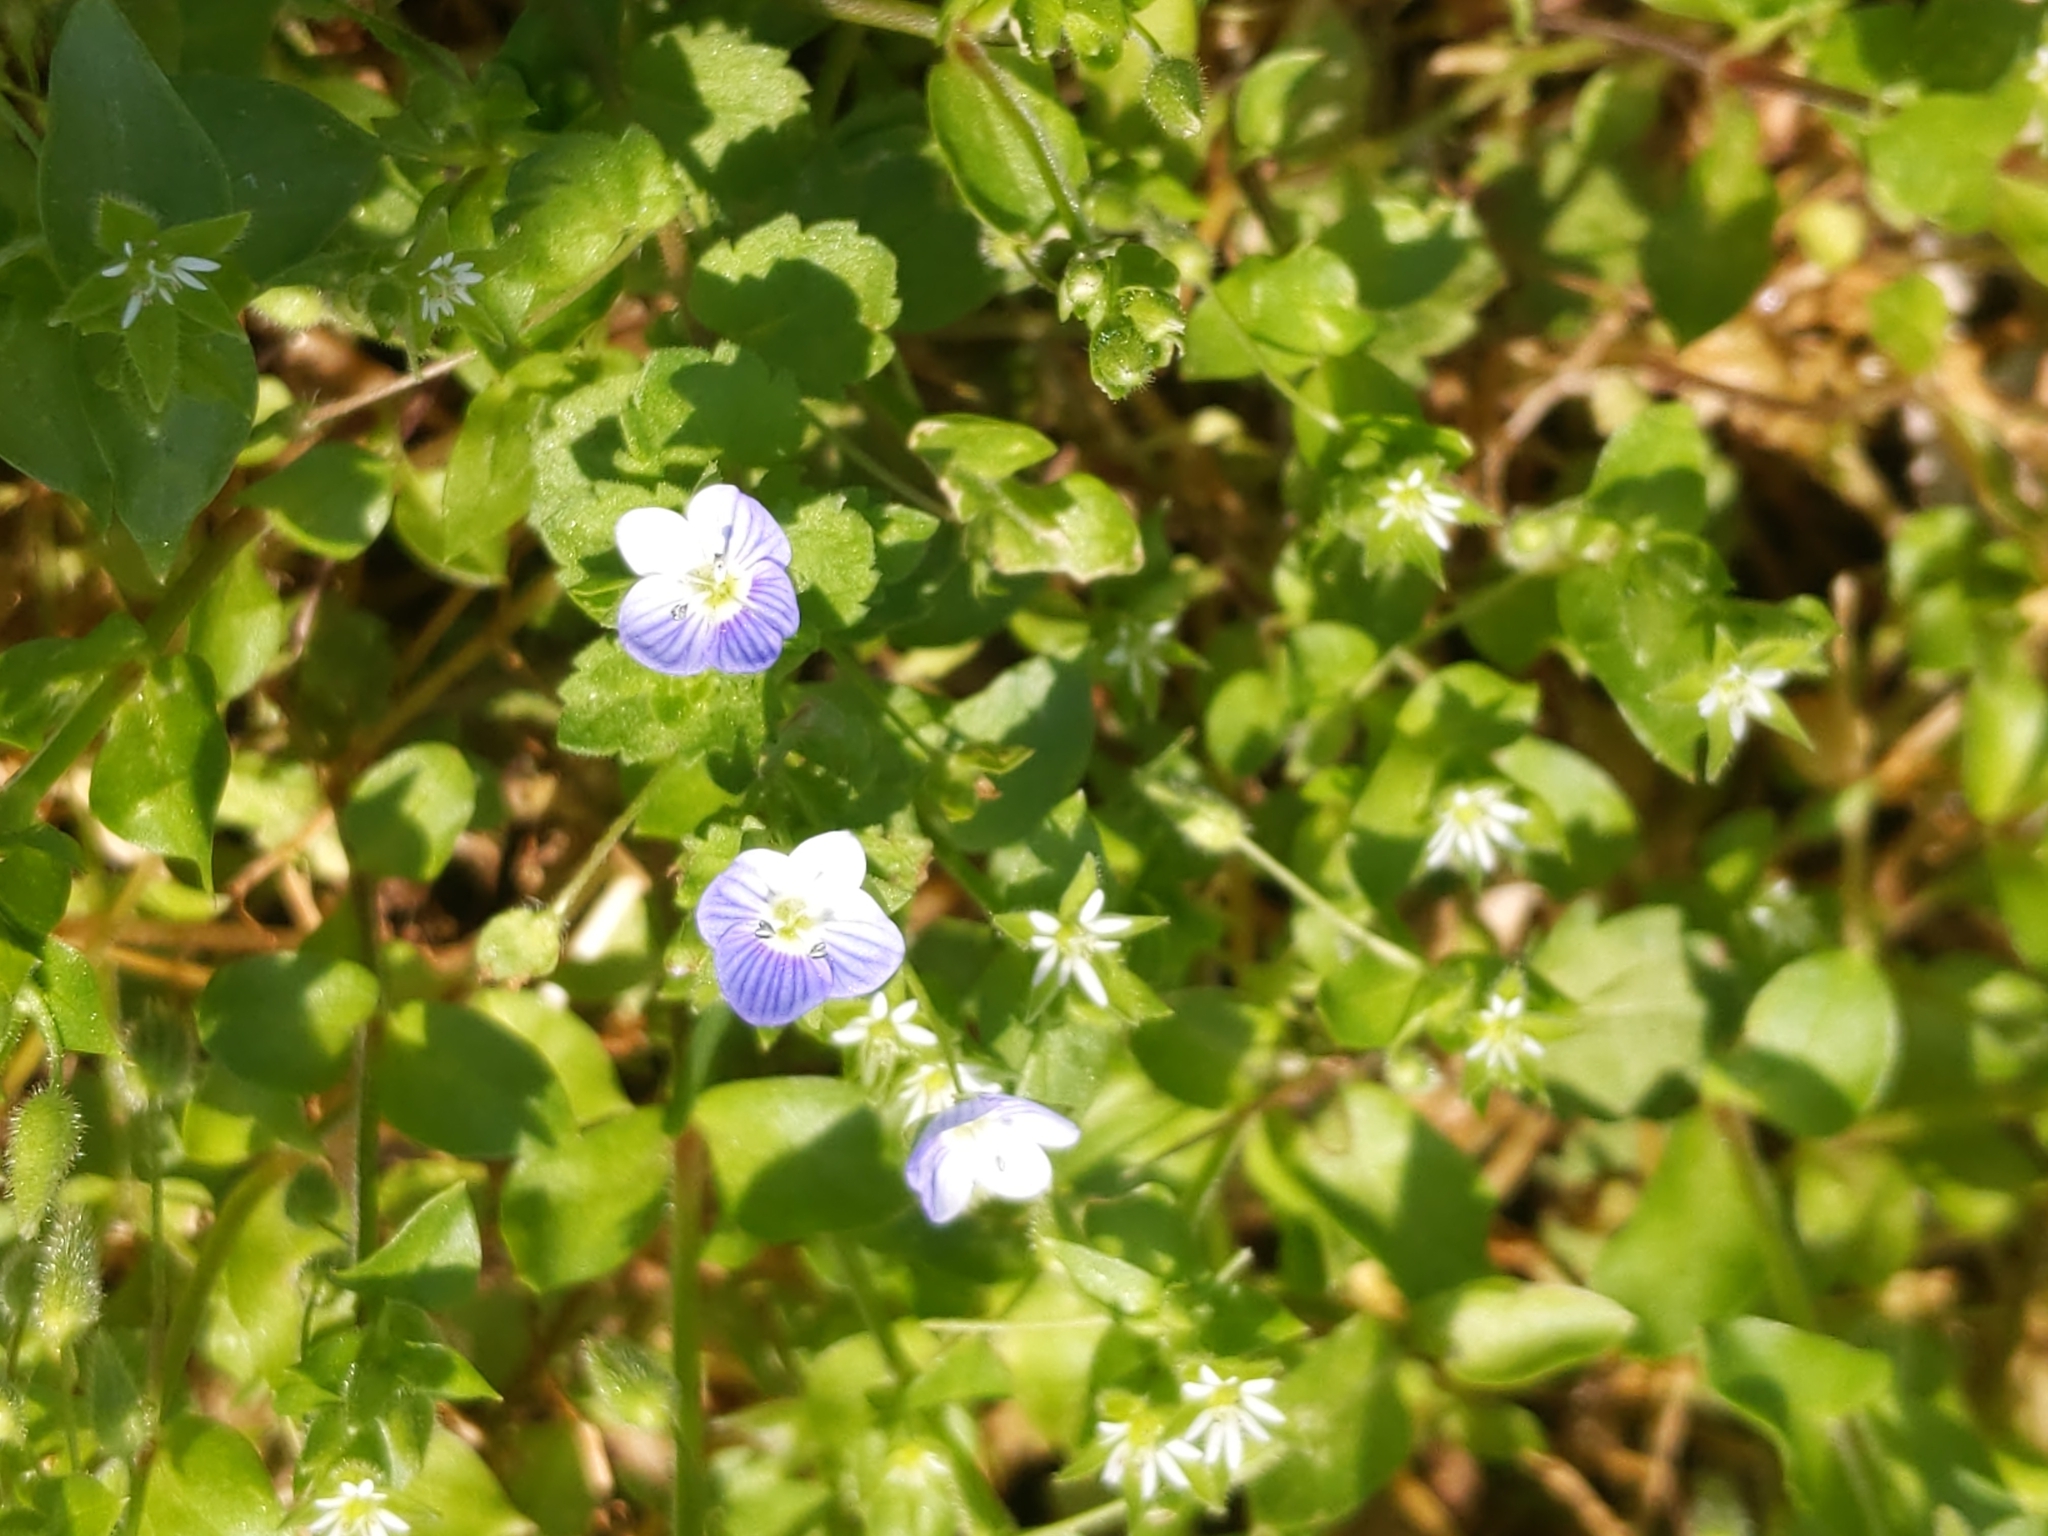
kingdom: Plantae
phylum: Tracheophyta
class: Magnoliopsida
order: Lamiales
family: Plantaginaceae
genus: Veronica
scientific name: Veronica persica
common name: Common field-speedwell
